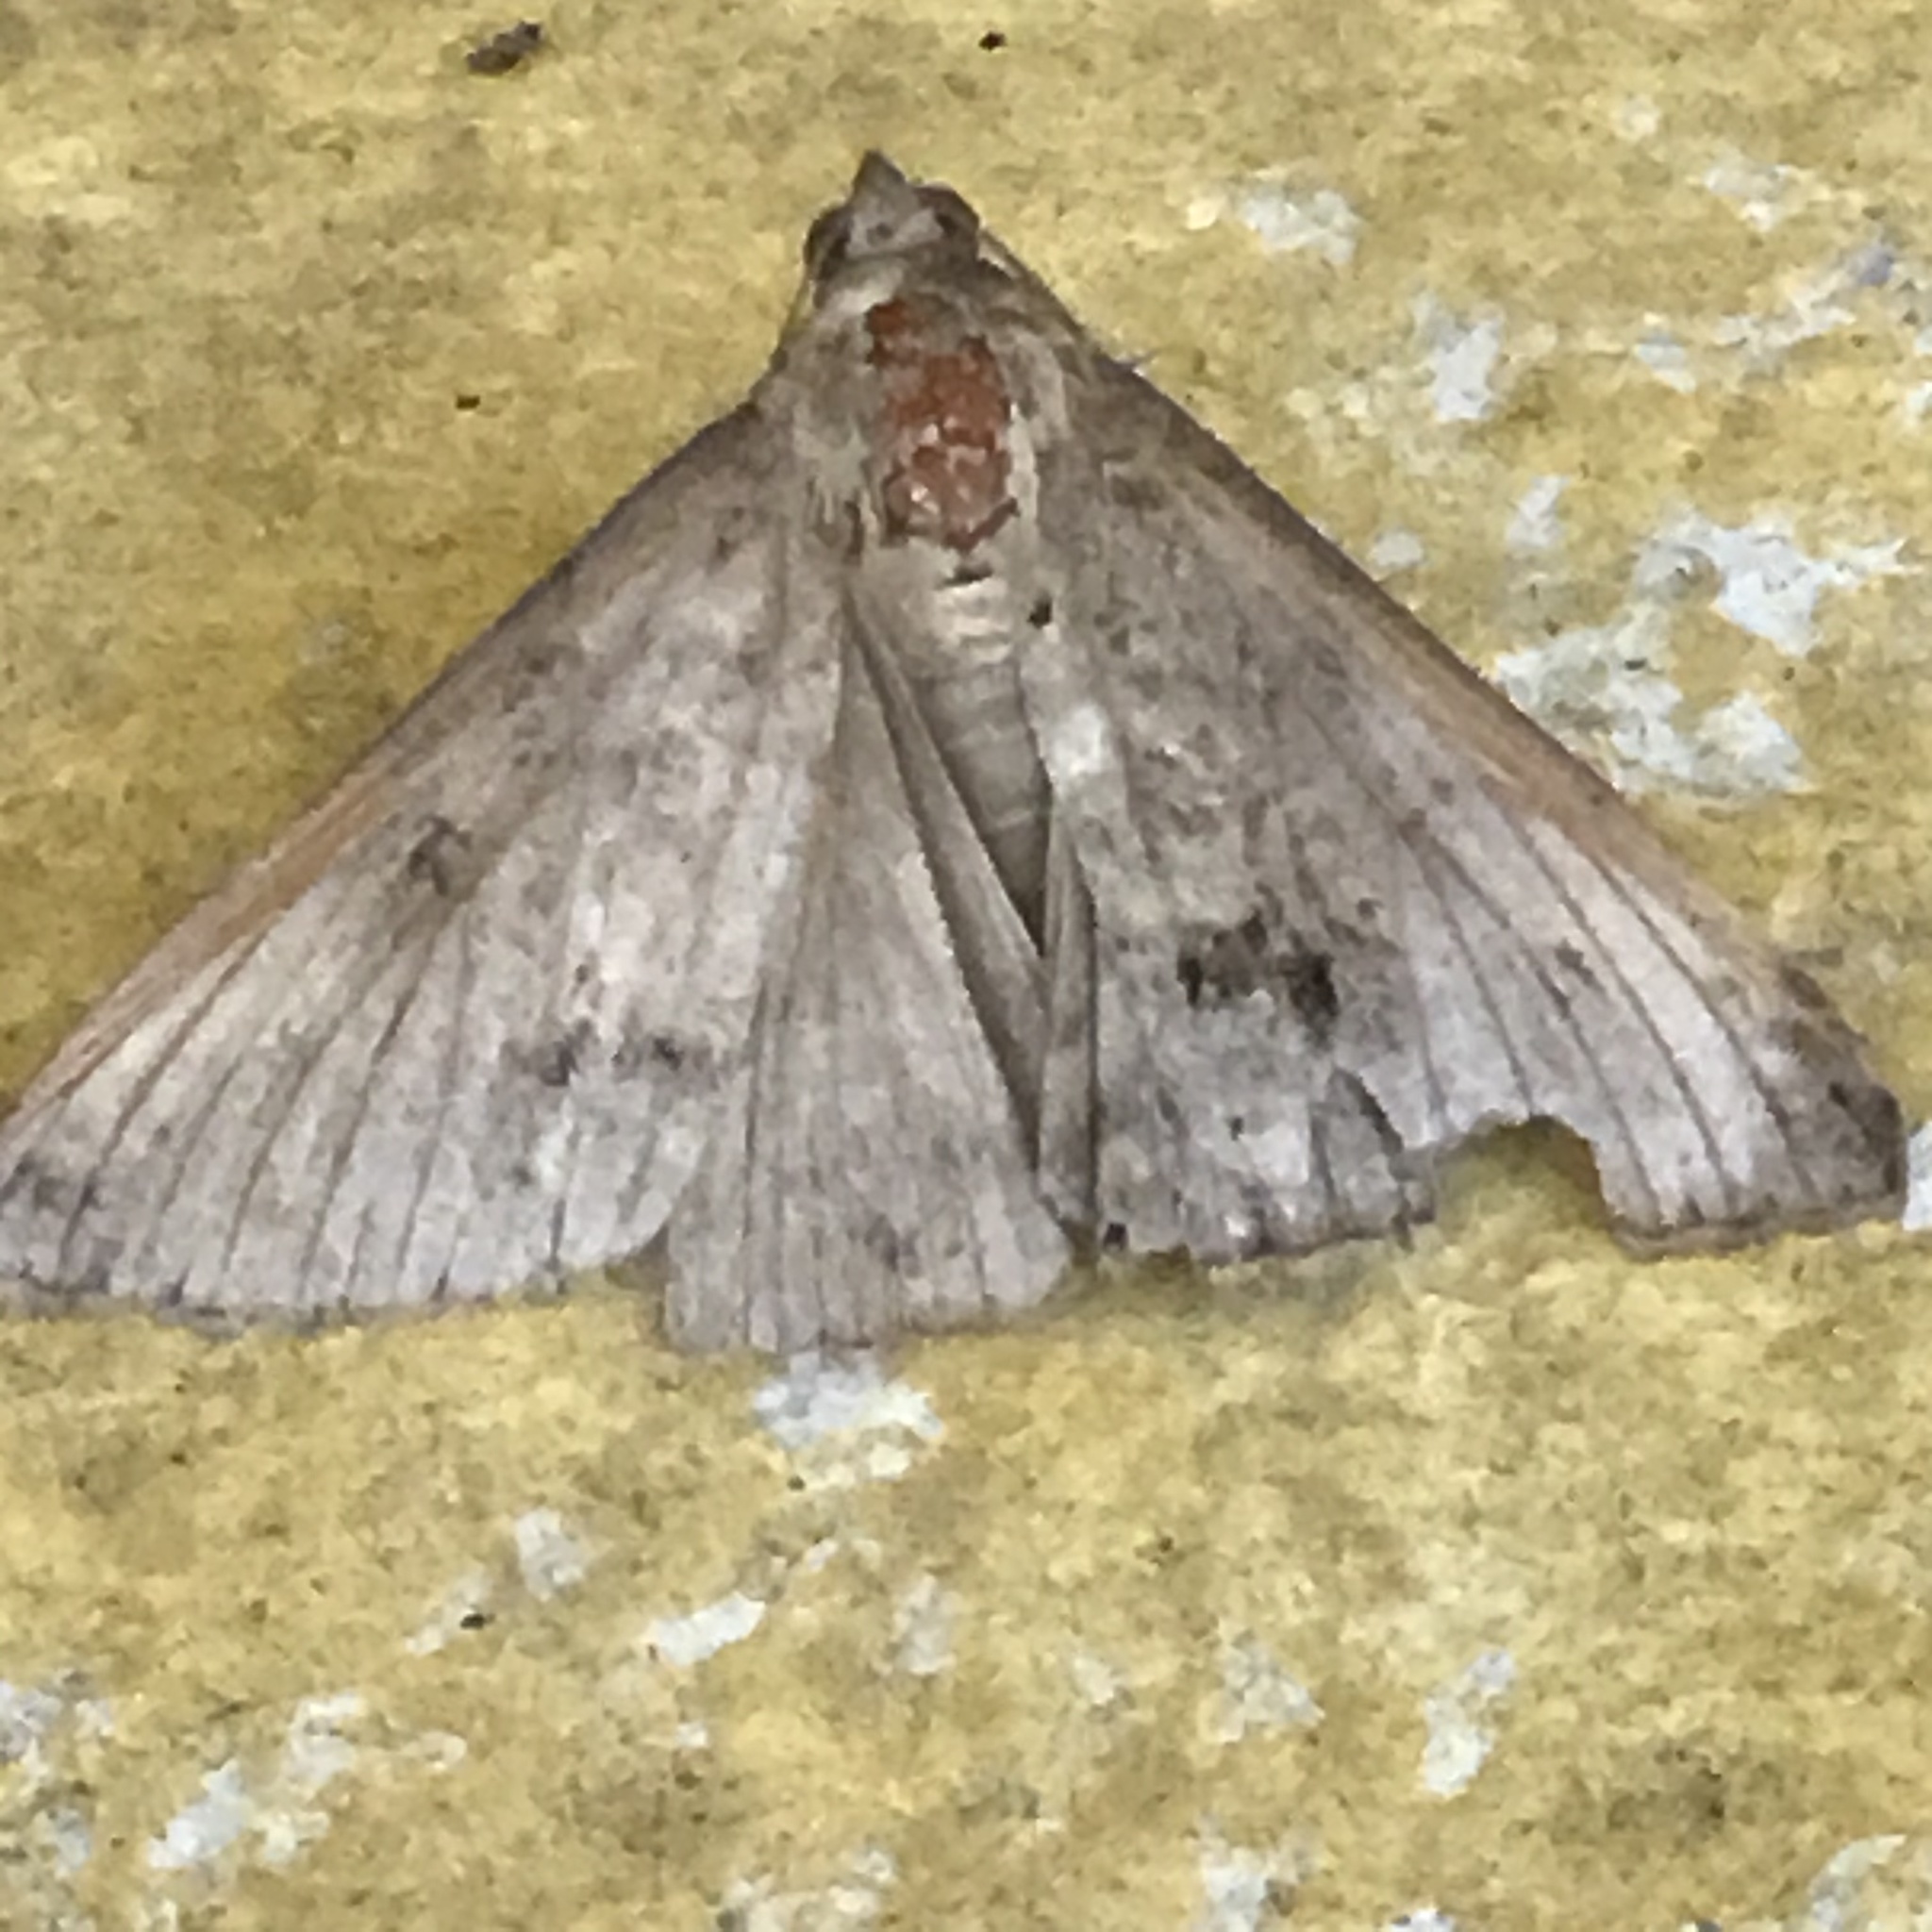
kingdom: Animalia
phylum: Arthropoda
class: Insecta
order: Lepidoptera
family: Erebidae
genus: Mocis
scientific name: Mocis latipes
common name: Striped grass looper
